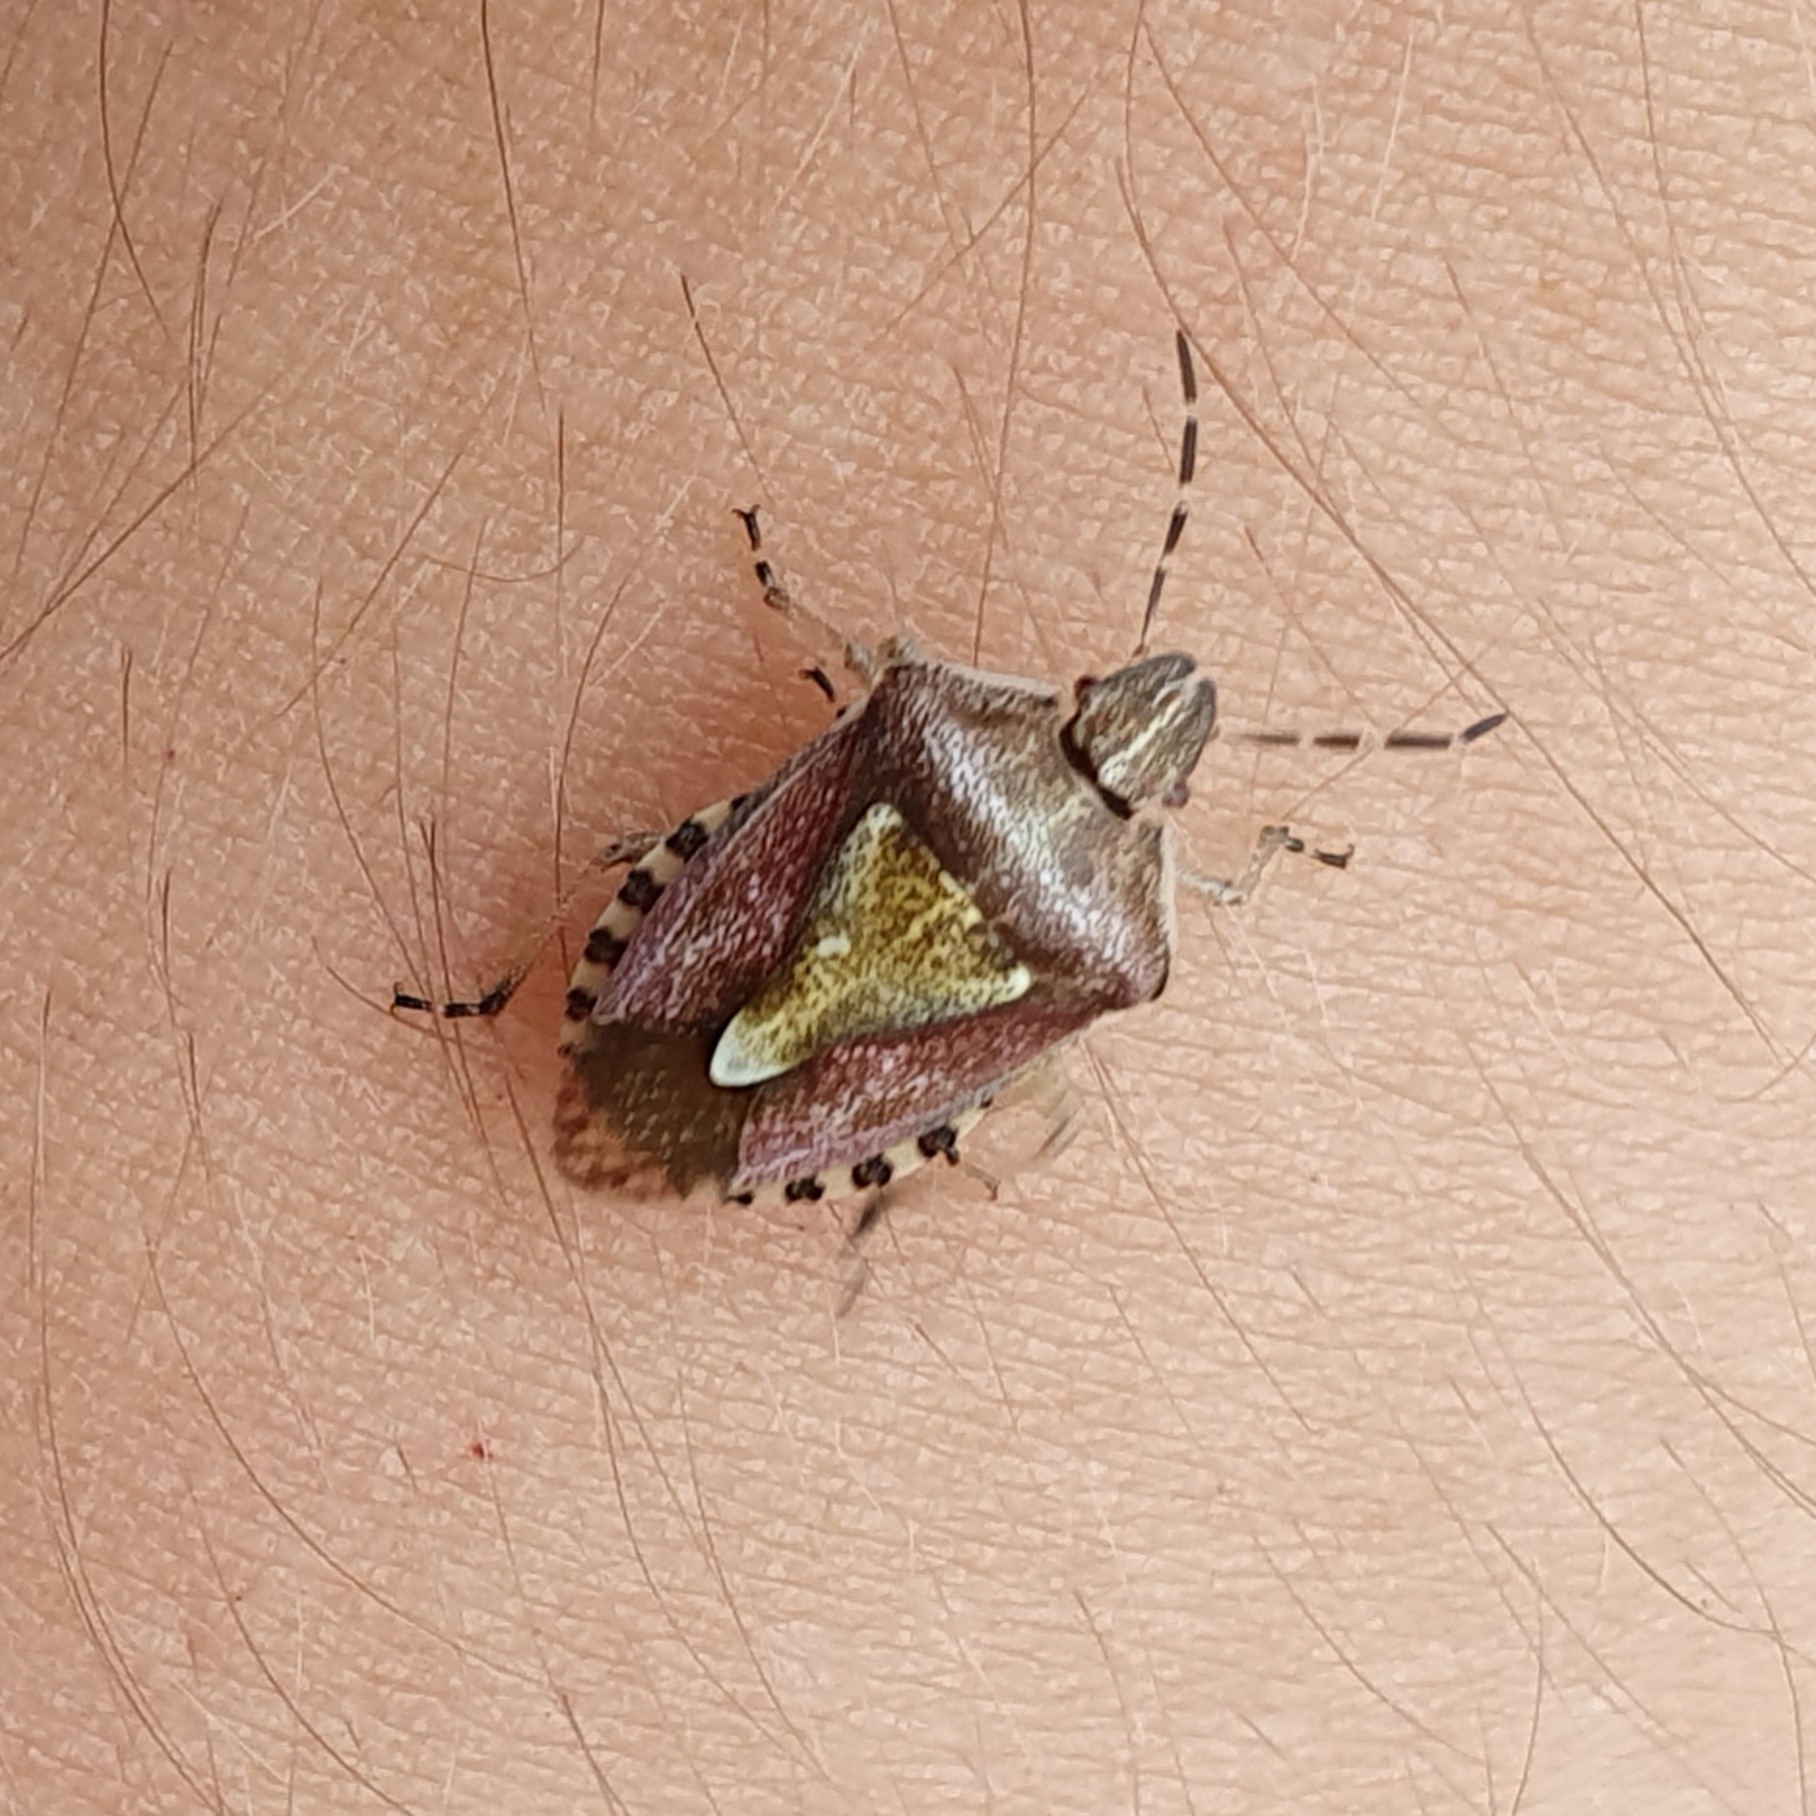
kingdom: Animalia
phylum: Arthropoda
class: Insecta
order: Hemiptera
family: Pentatomidae
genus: Dolycoris
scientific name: Dolycoris numidicus
